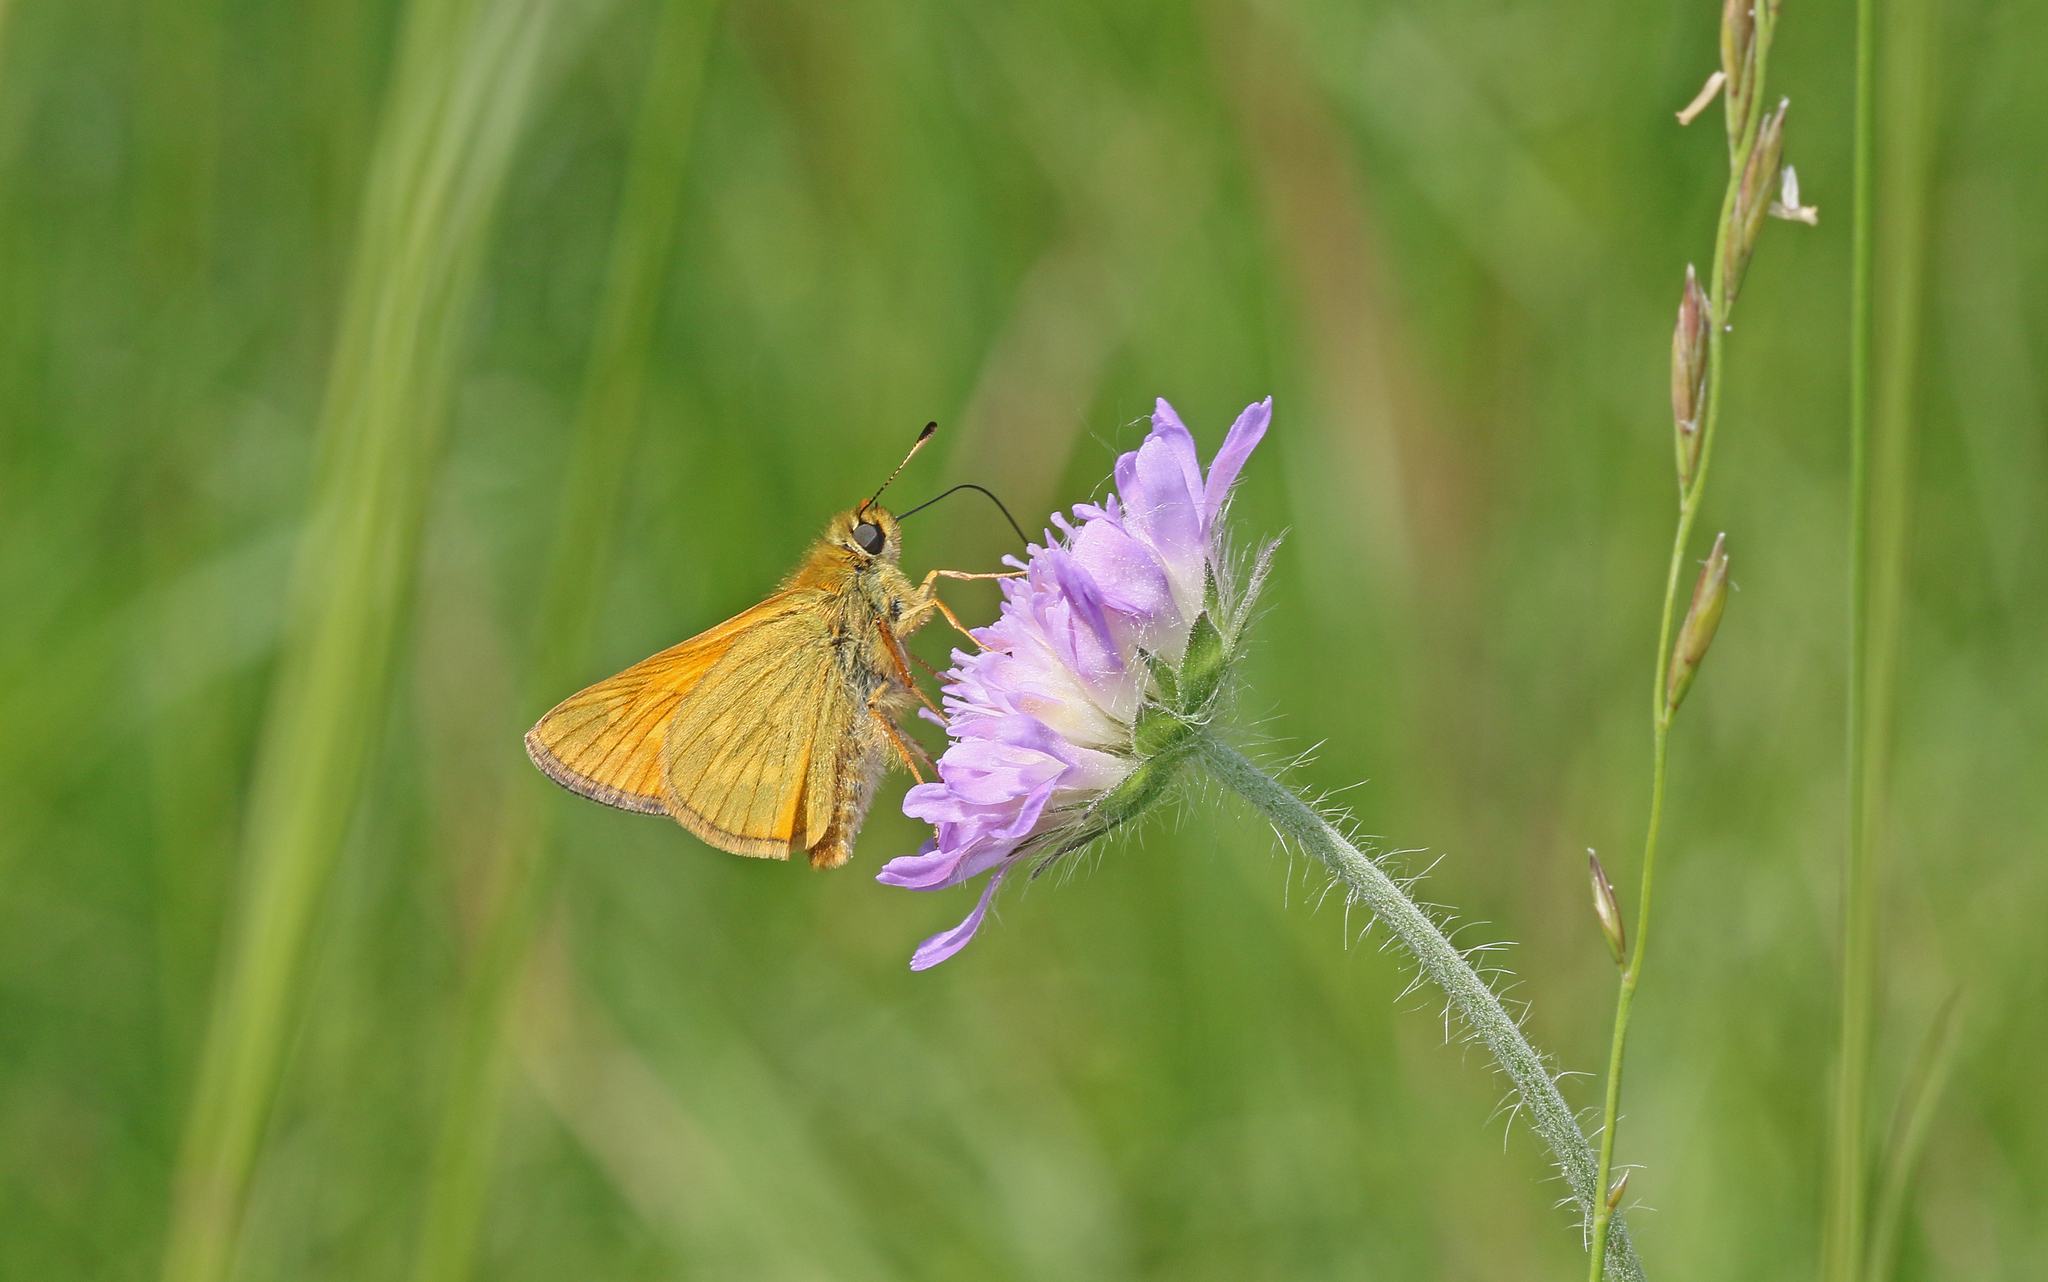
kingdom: Animalia
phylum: Arthropoda
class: Insecta
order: Lepidoptera
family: Hesperiidae
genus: Ochlodes
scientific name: Ochlodes venata
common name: Large skipper
